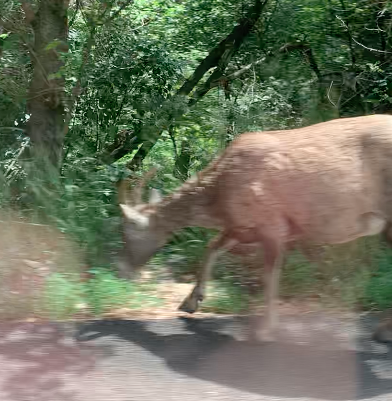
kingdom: Animalia
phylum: Chordata
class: Mammalia
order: Artiodactyla
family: Bovidae
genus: Ovis
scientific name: Ovis canadensis
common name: Bighorn sheep
